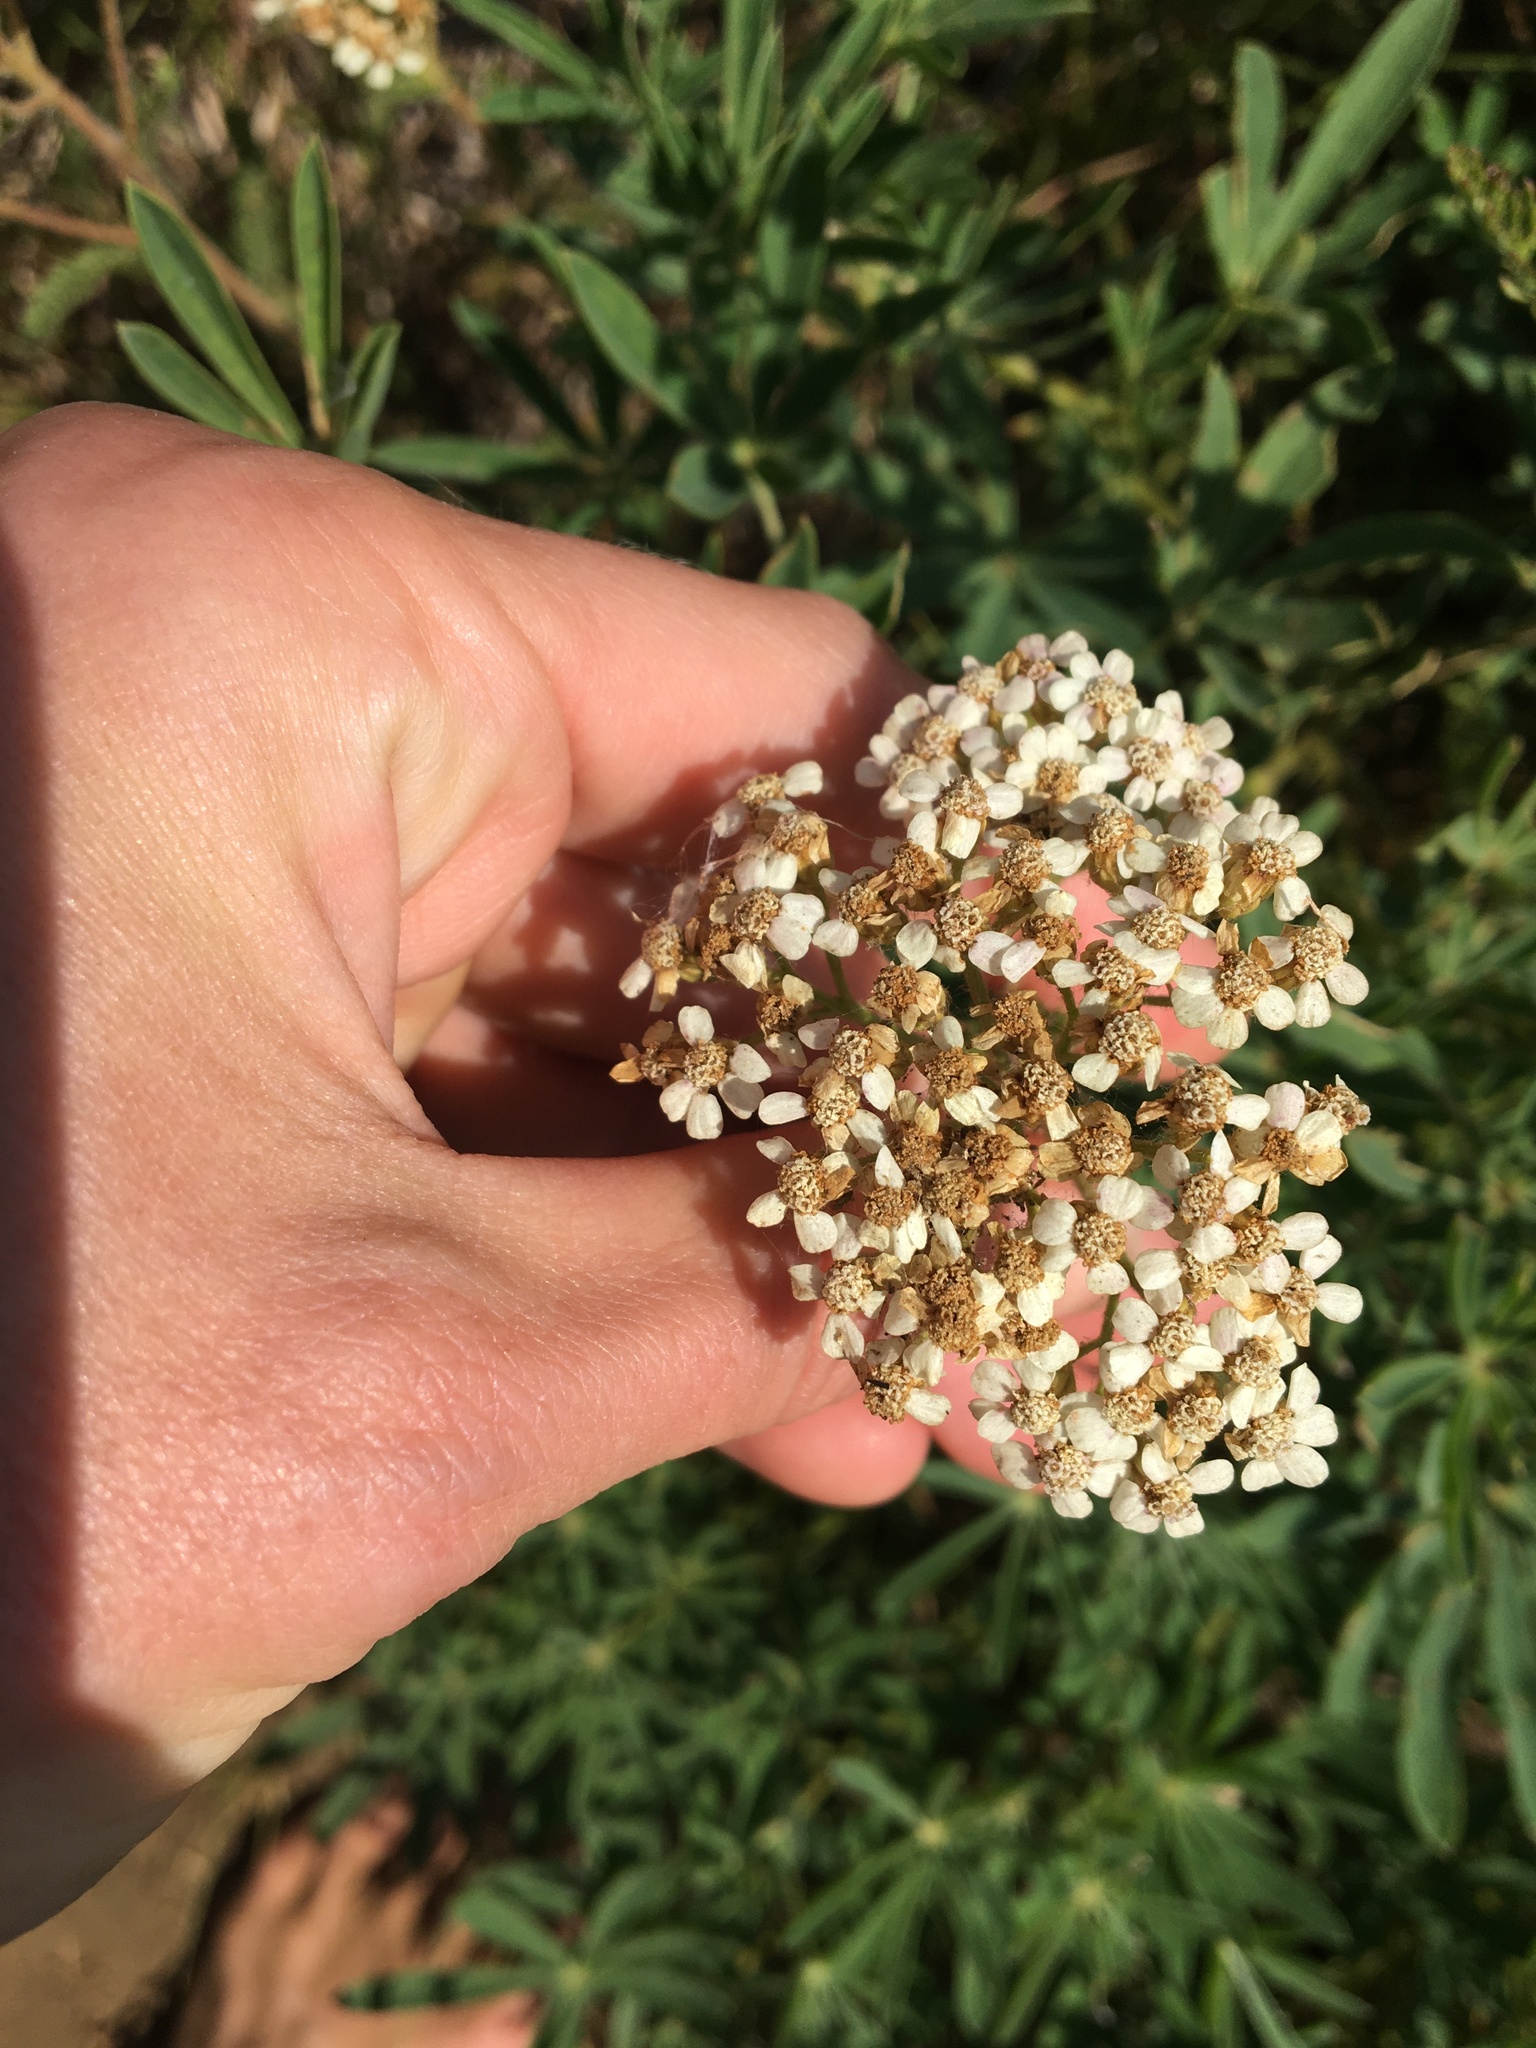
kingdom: Plantae
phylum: Tracheophyta
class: Magnoliopsida
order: Asterales
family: Asteraceae
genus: Achillea
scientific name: Achillea millefolium
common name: Yarrow
